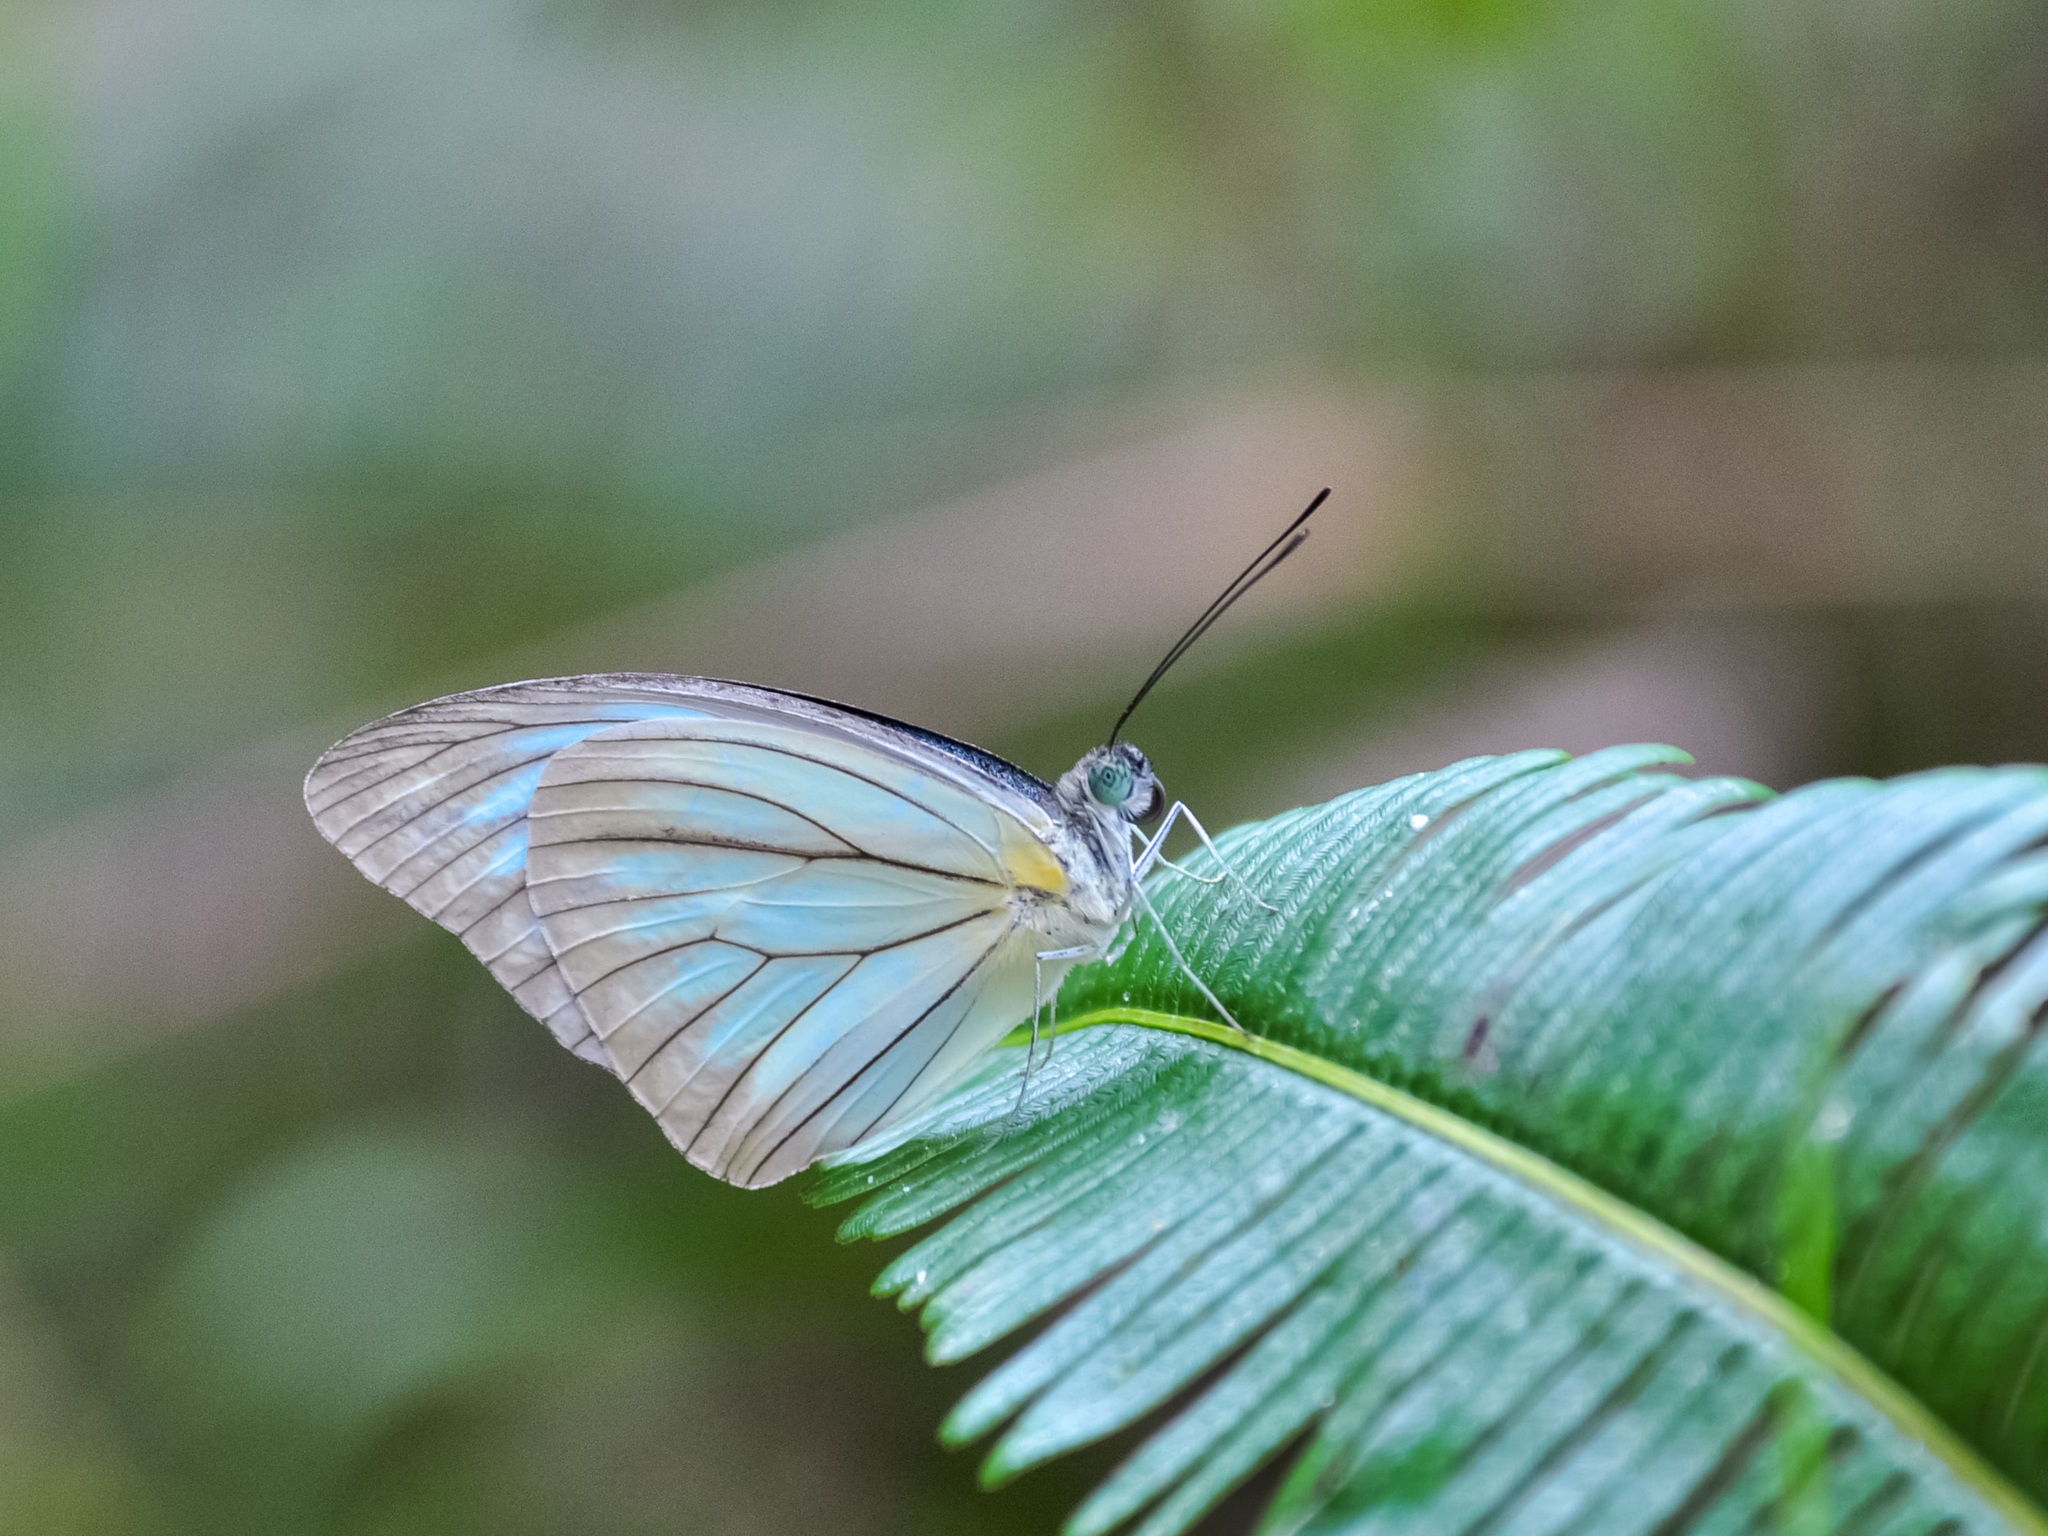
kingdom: Animalia
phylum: Arthropoda
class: Insecta
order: Lepidoptera
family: Pieridae
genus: Pareronia
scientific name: Pareronia valeria
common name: Common wanderer?
